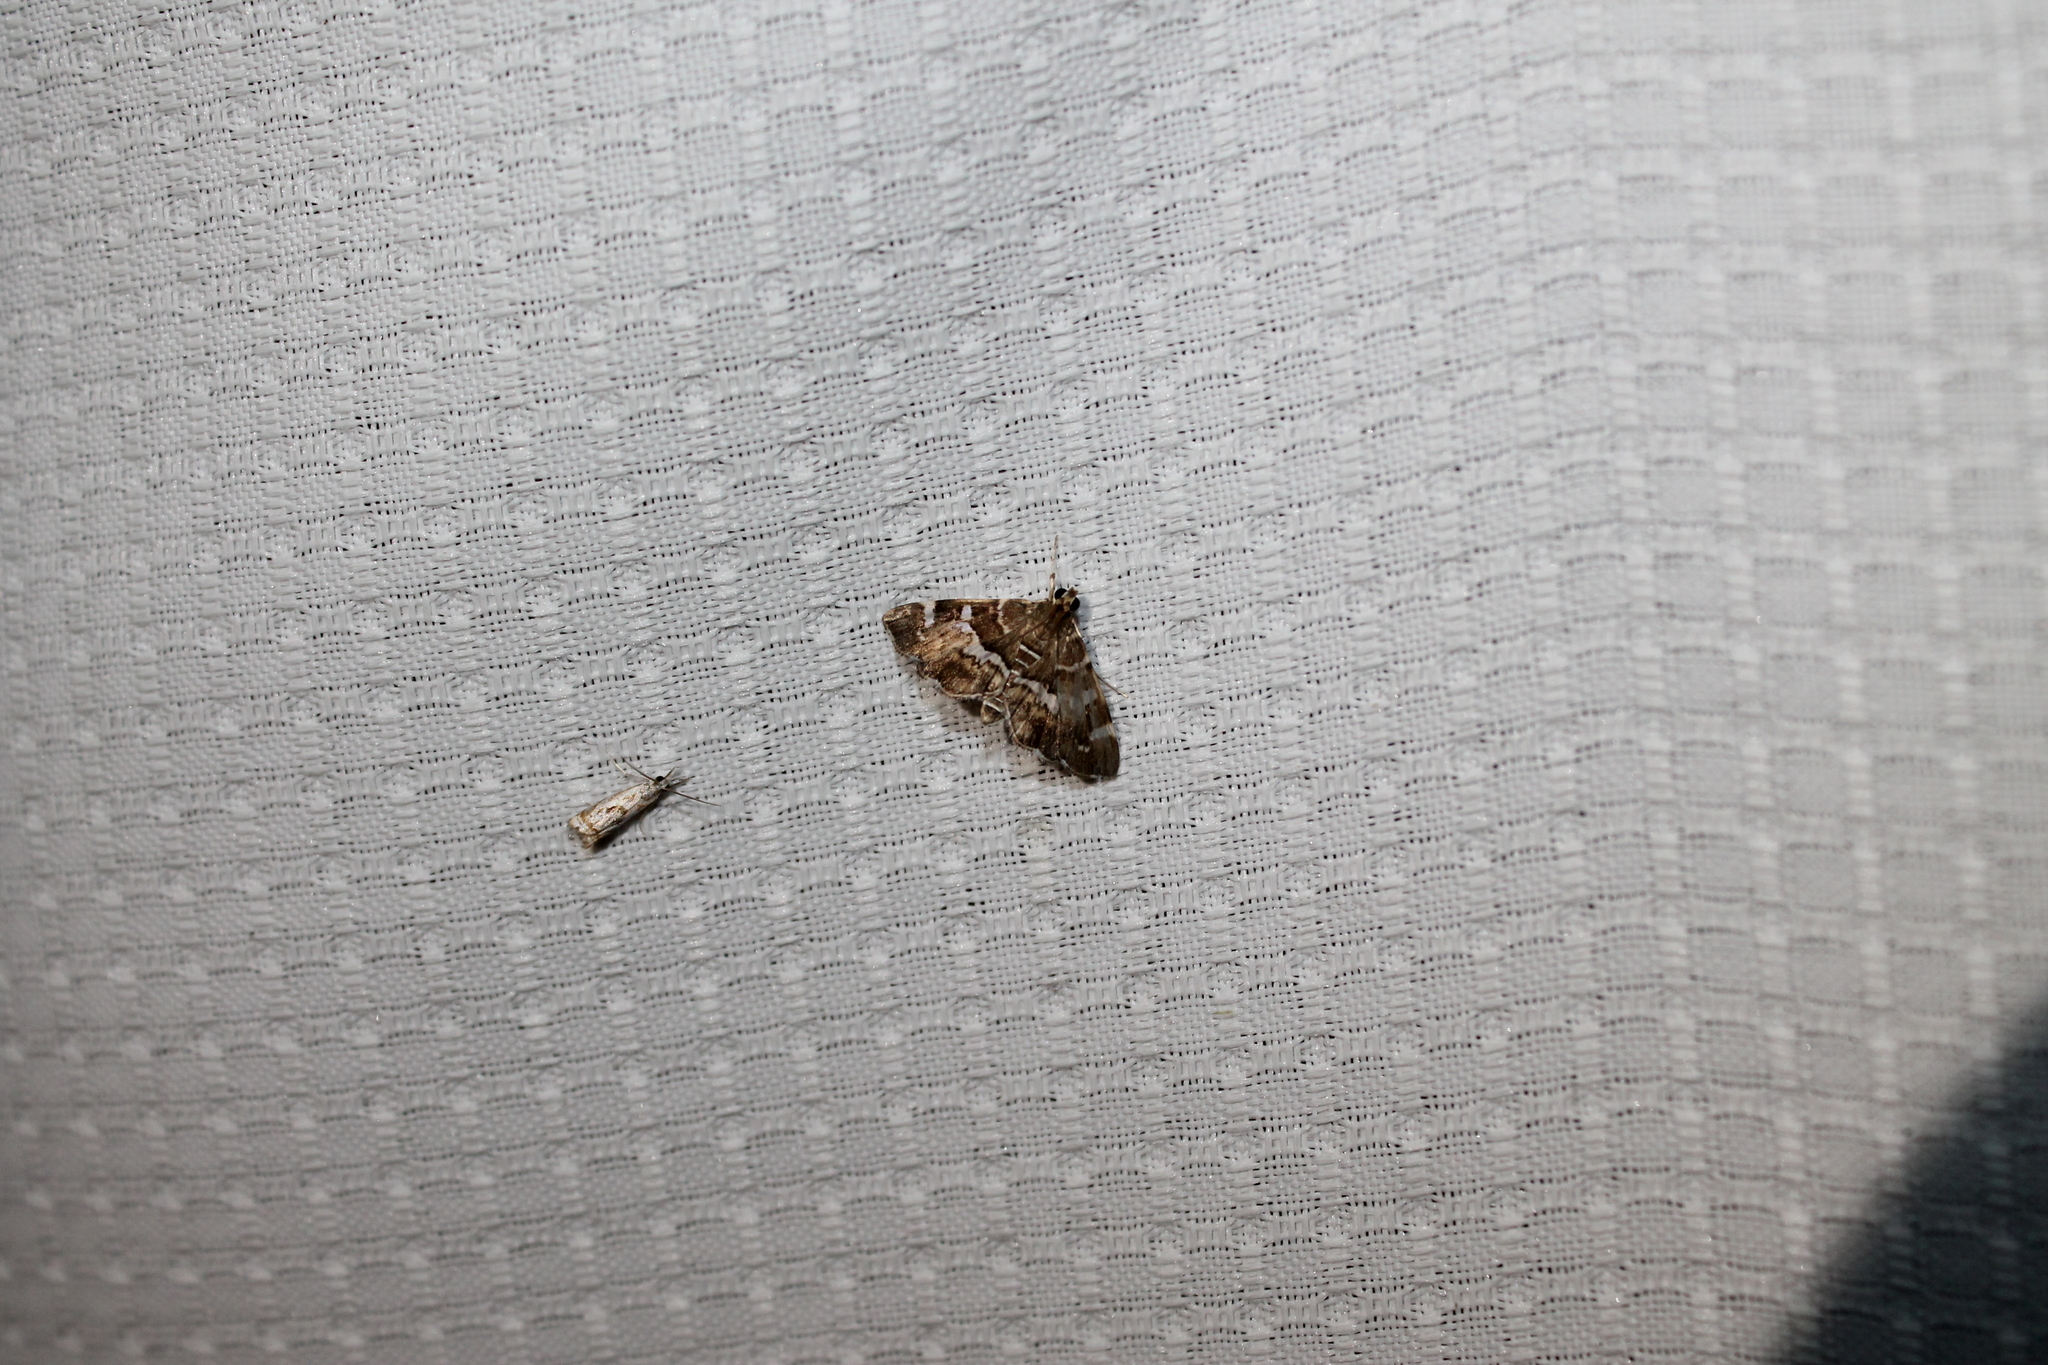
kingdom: Animalia
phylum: Arthropoda
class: Insecta
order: Lepidoptera
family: Crambidae
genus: Hymenia
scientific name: Hymenia perspectalis
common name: Spotted beet webworm
